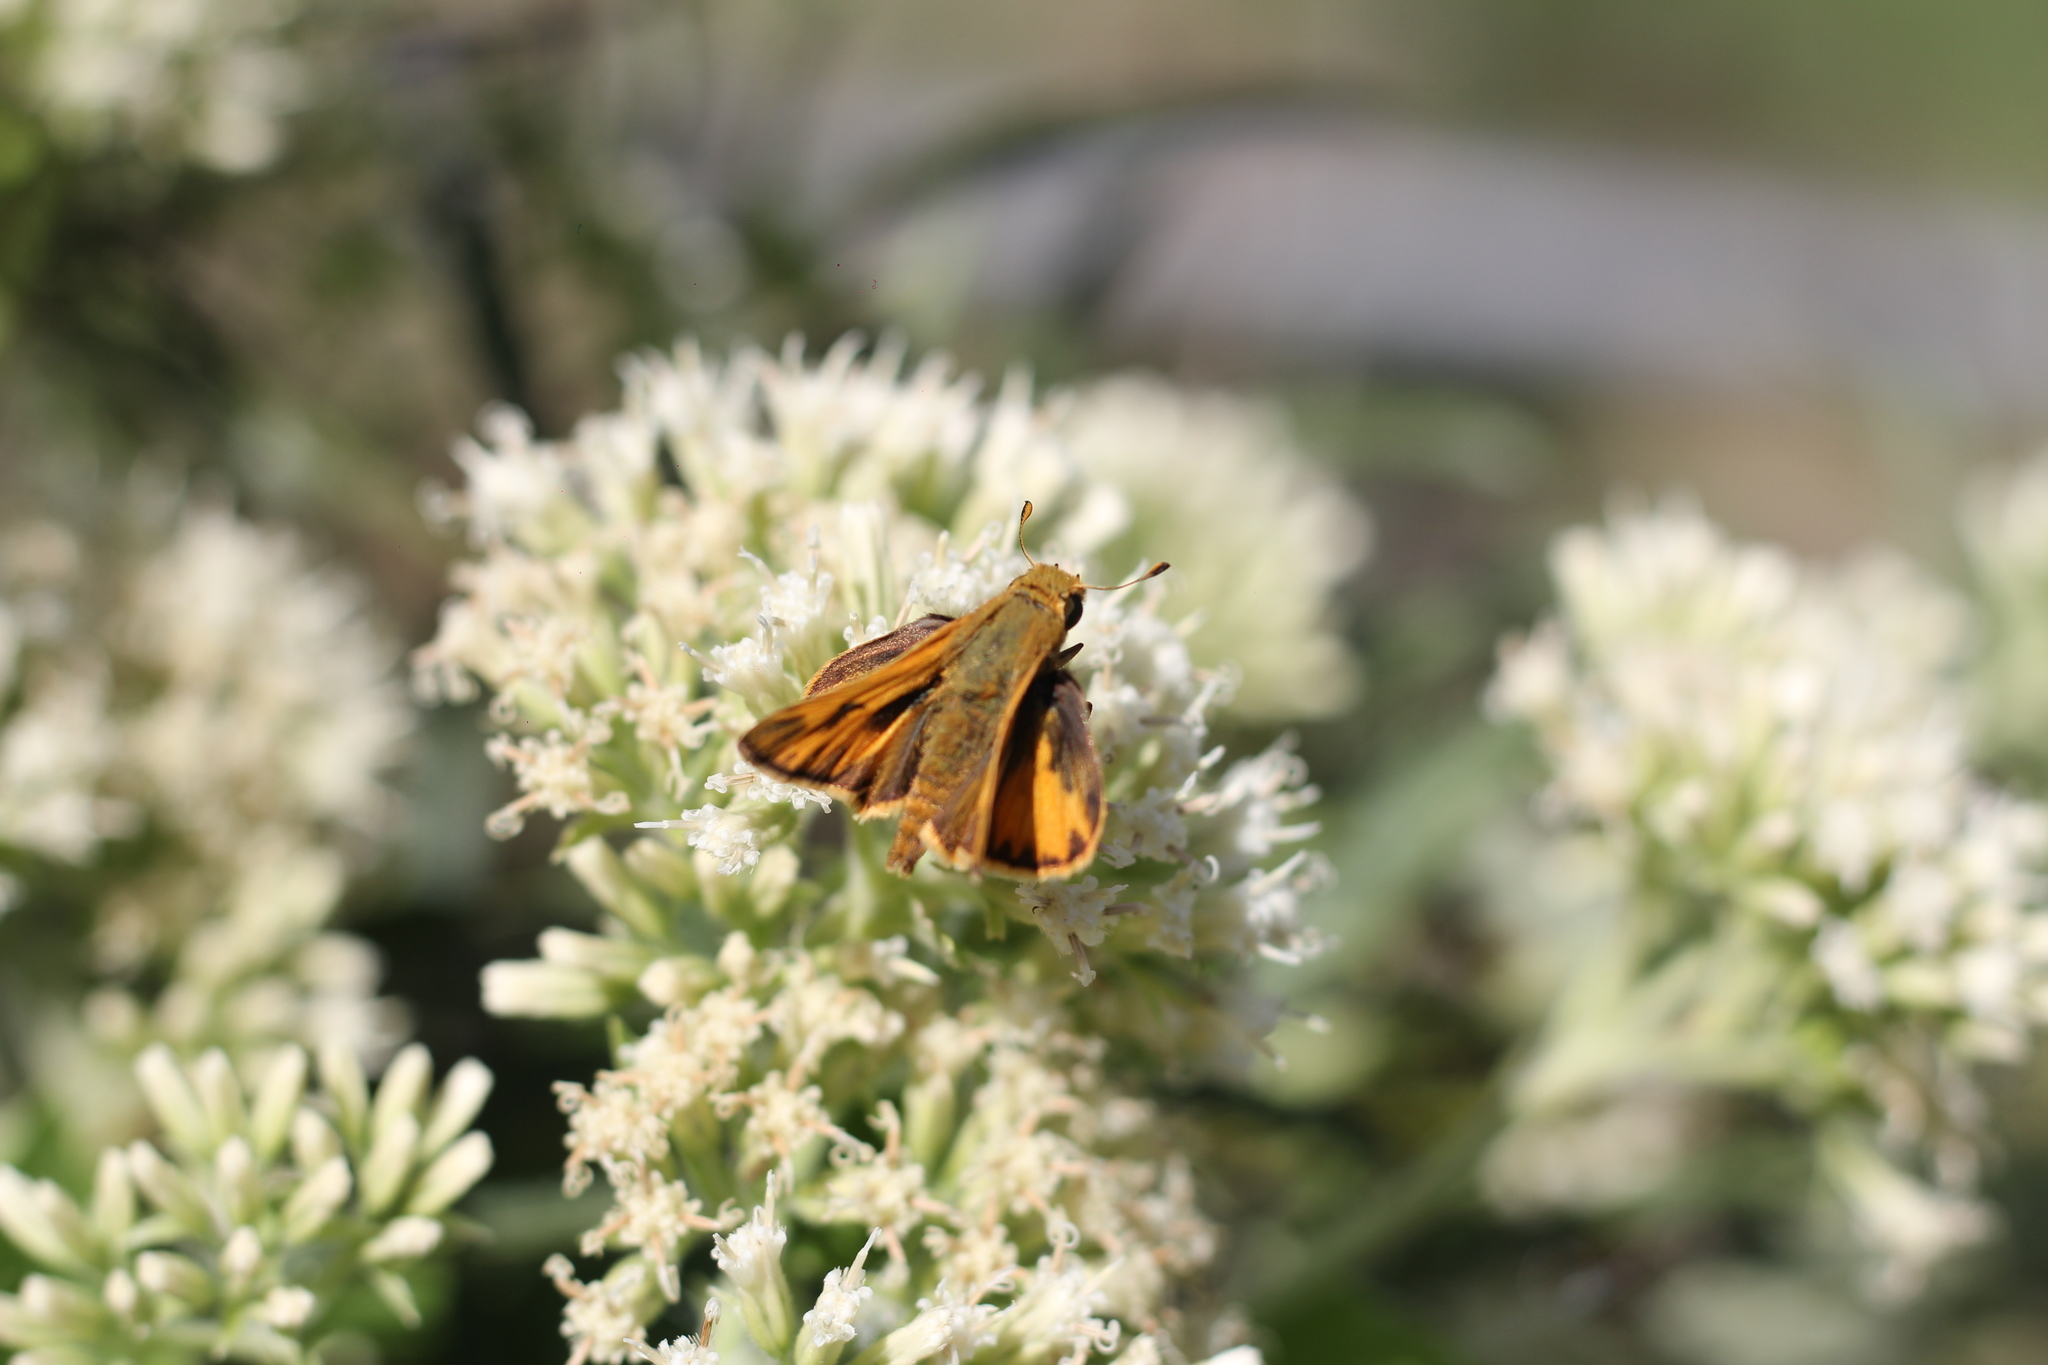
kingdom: Animalia
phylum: Arthropoda
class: Insecta
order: Lepidoptera
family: Hesperiidae
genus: Hylephila
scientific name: Hylephila phyleus
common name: Fiery skipper
